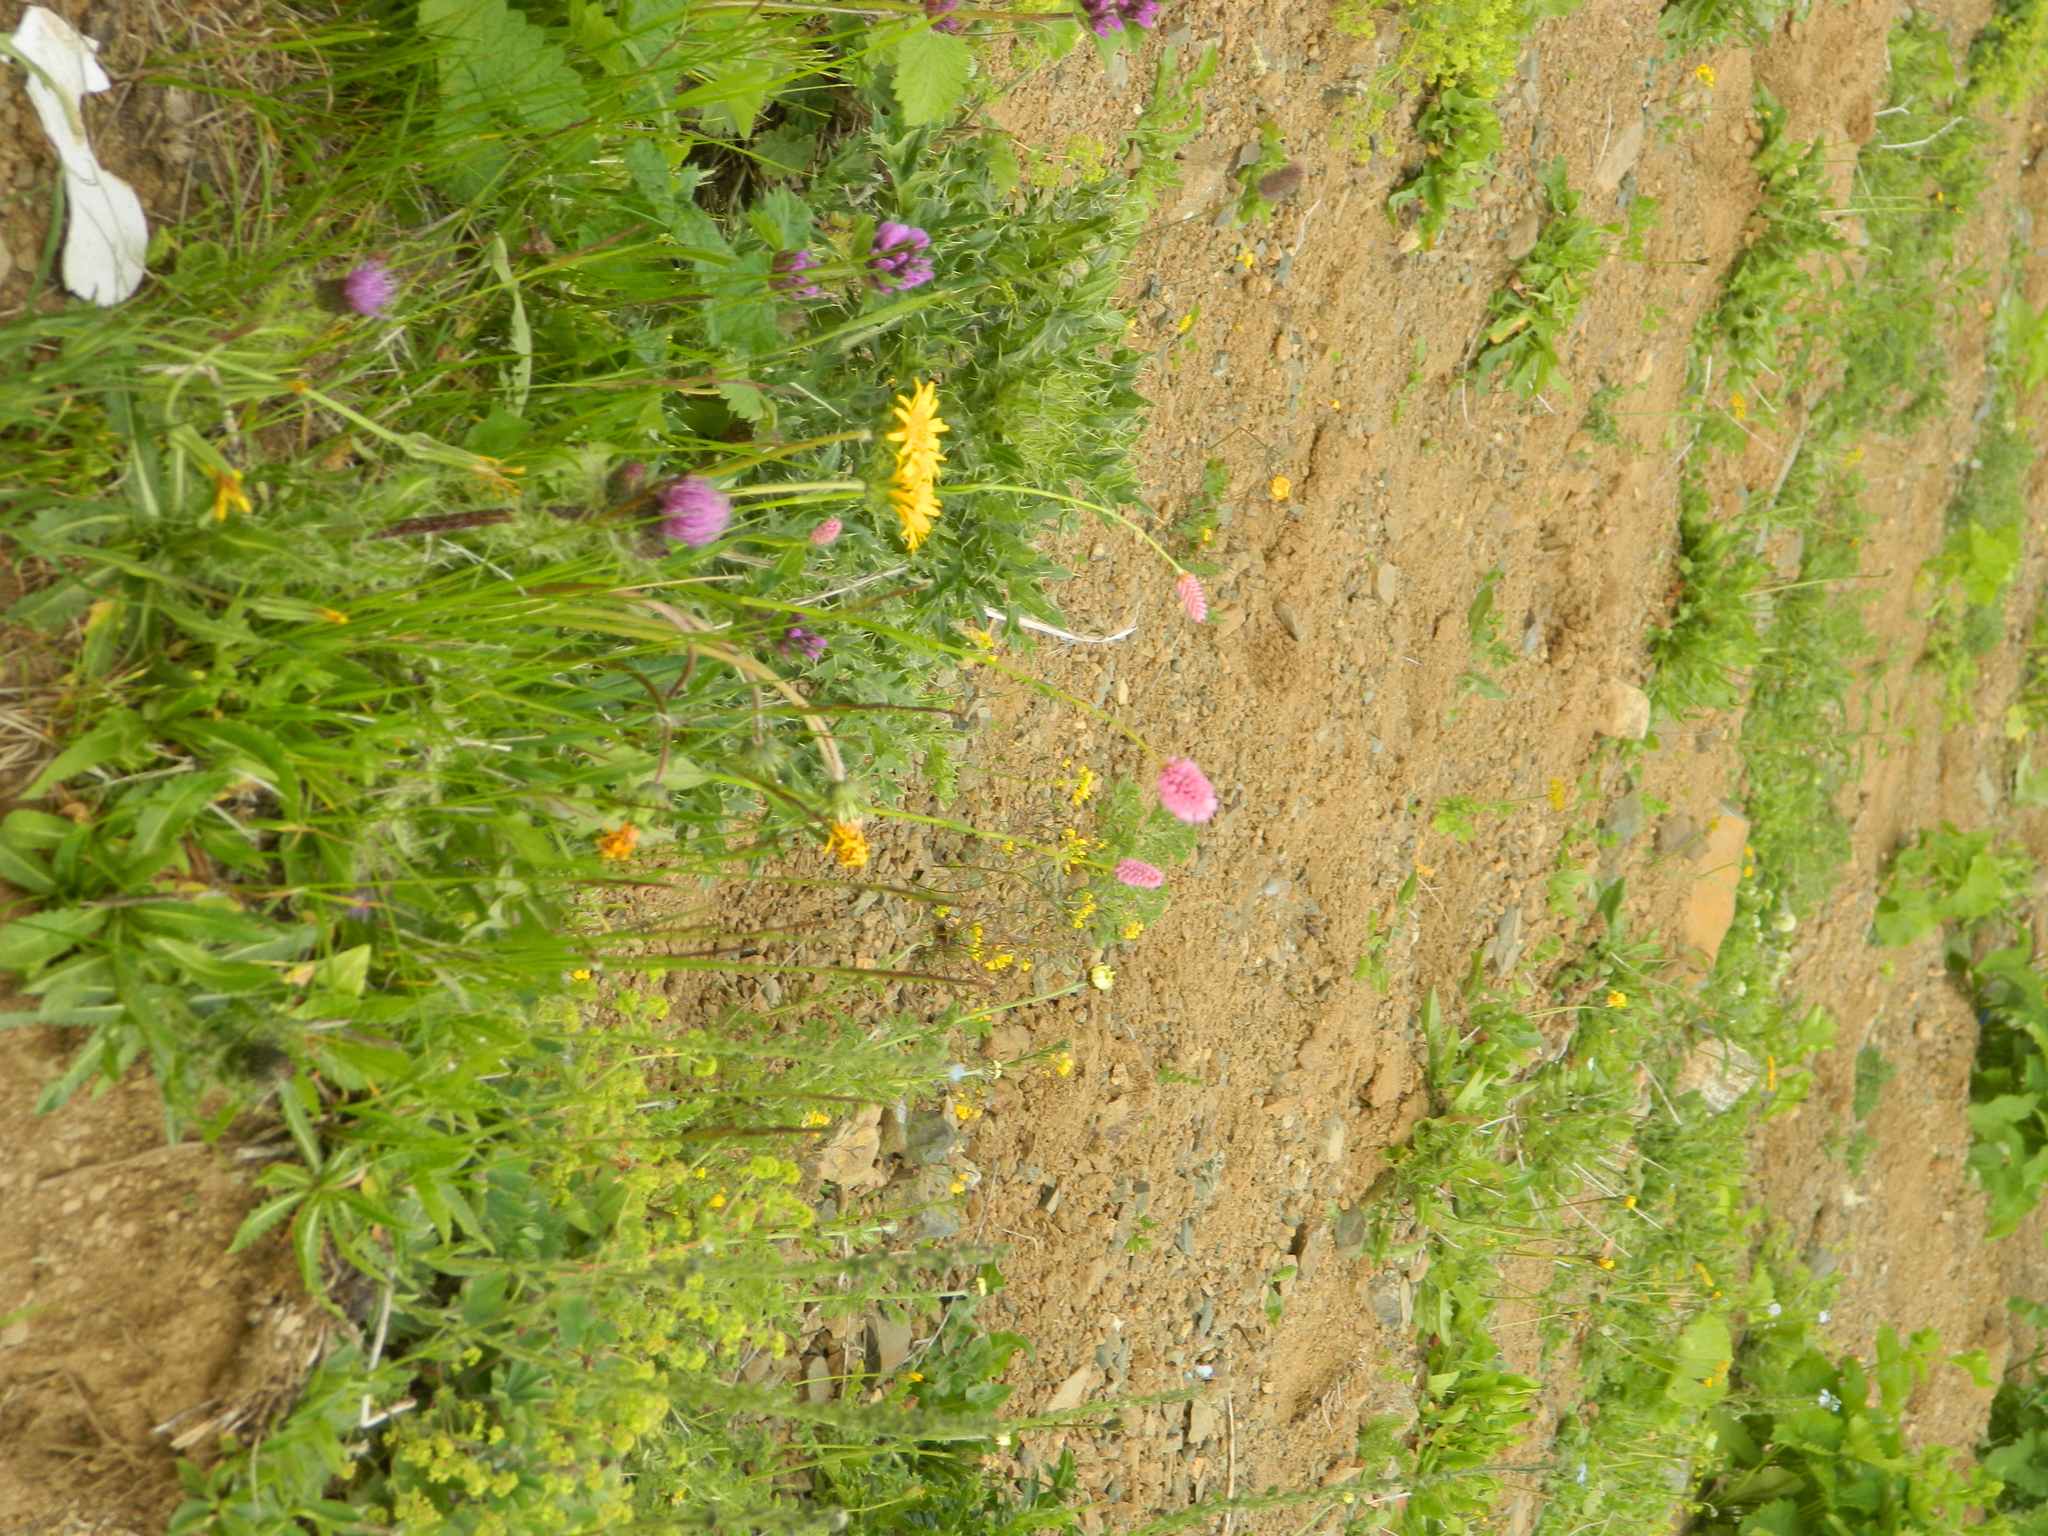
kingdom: Plantae
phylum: Tracheophyta
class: Magnoliopsida
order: Caryophyllales
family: Polygonaceae
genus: Bistorta
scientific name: Bistorta carnea
